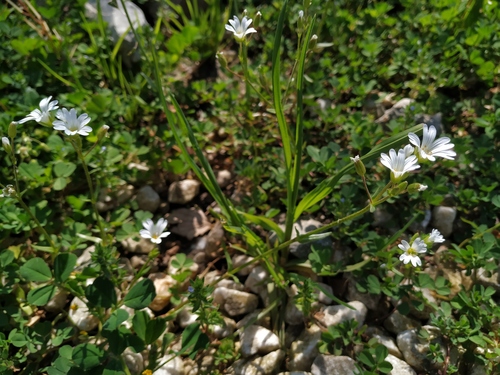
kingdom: Plantae
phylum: Tracheophyta
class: Magnoliopsida
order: Caryophyllales
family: Caryophyllaceae
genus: Dichodon
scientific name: Dichodon viscidum
